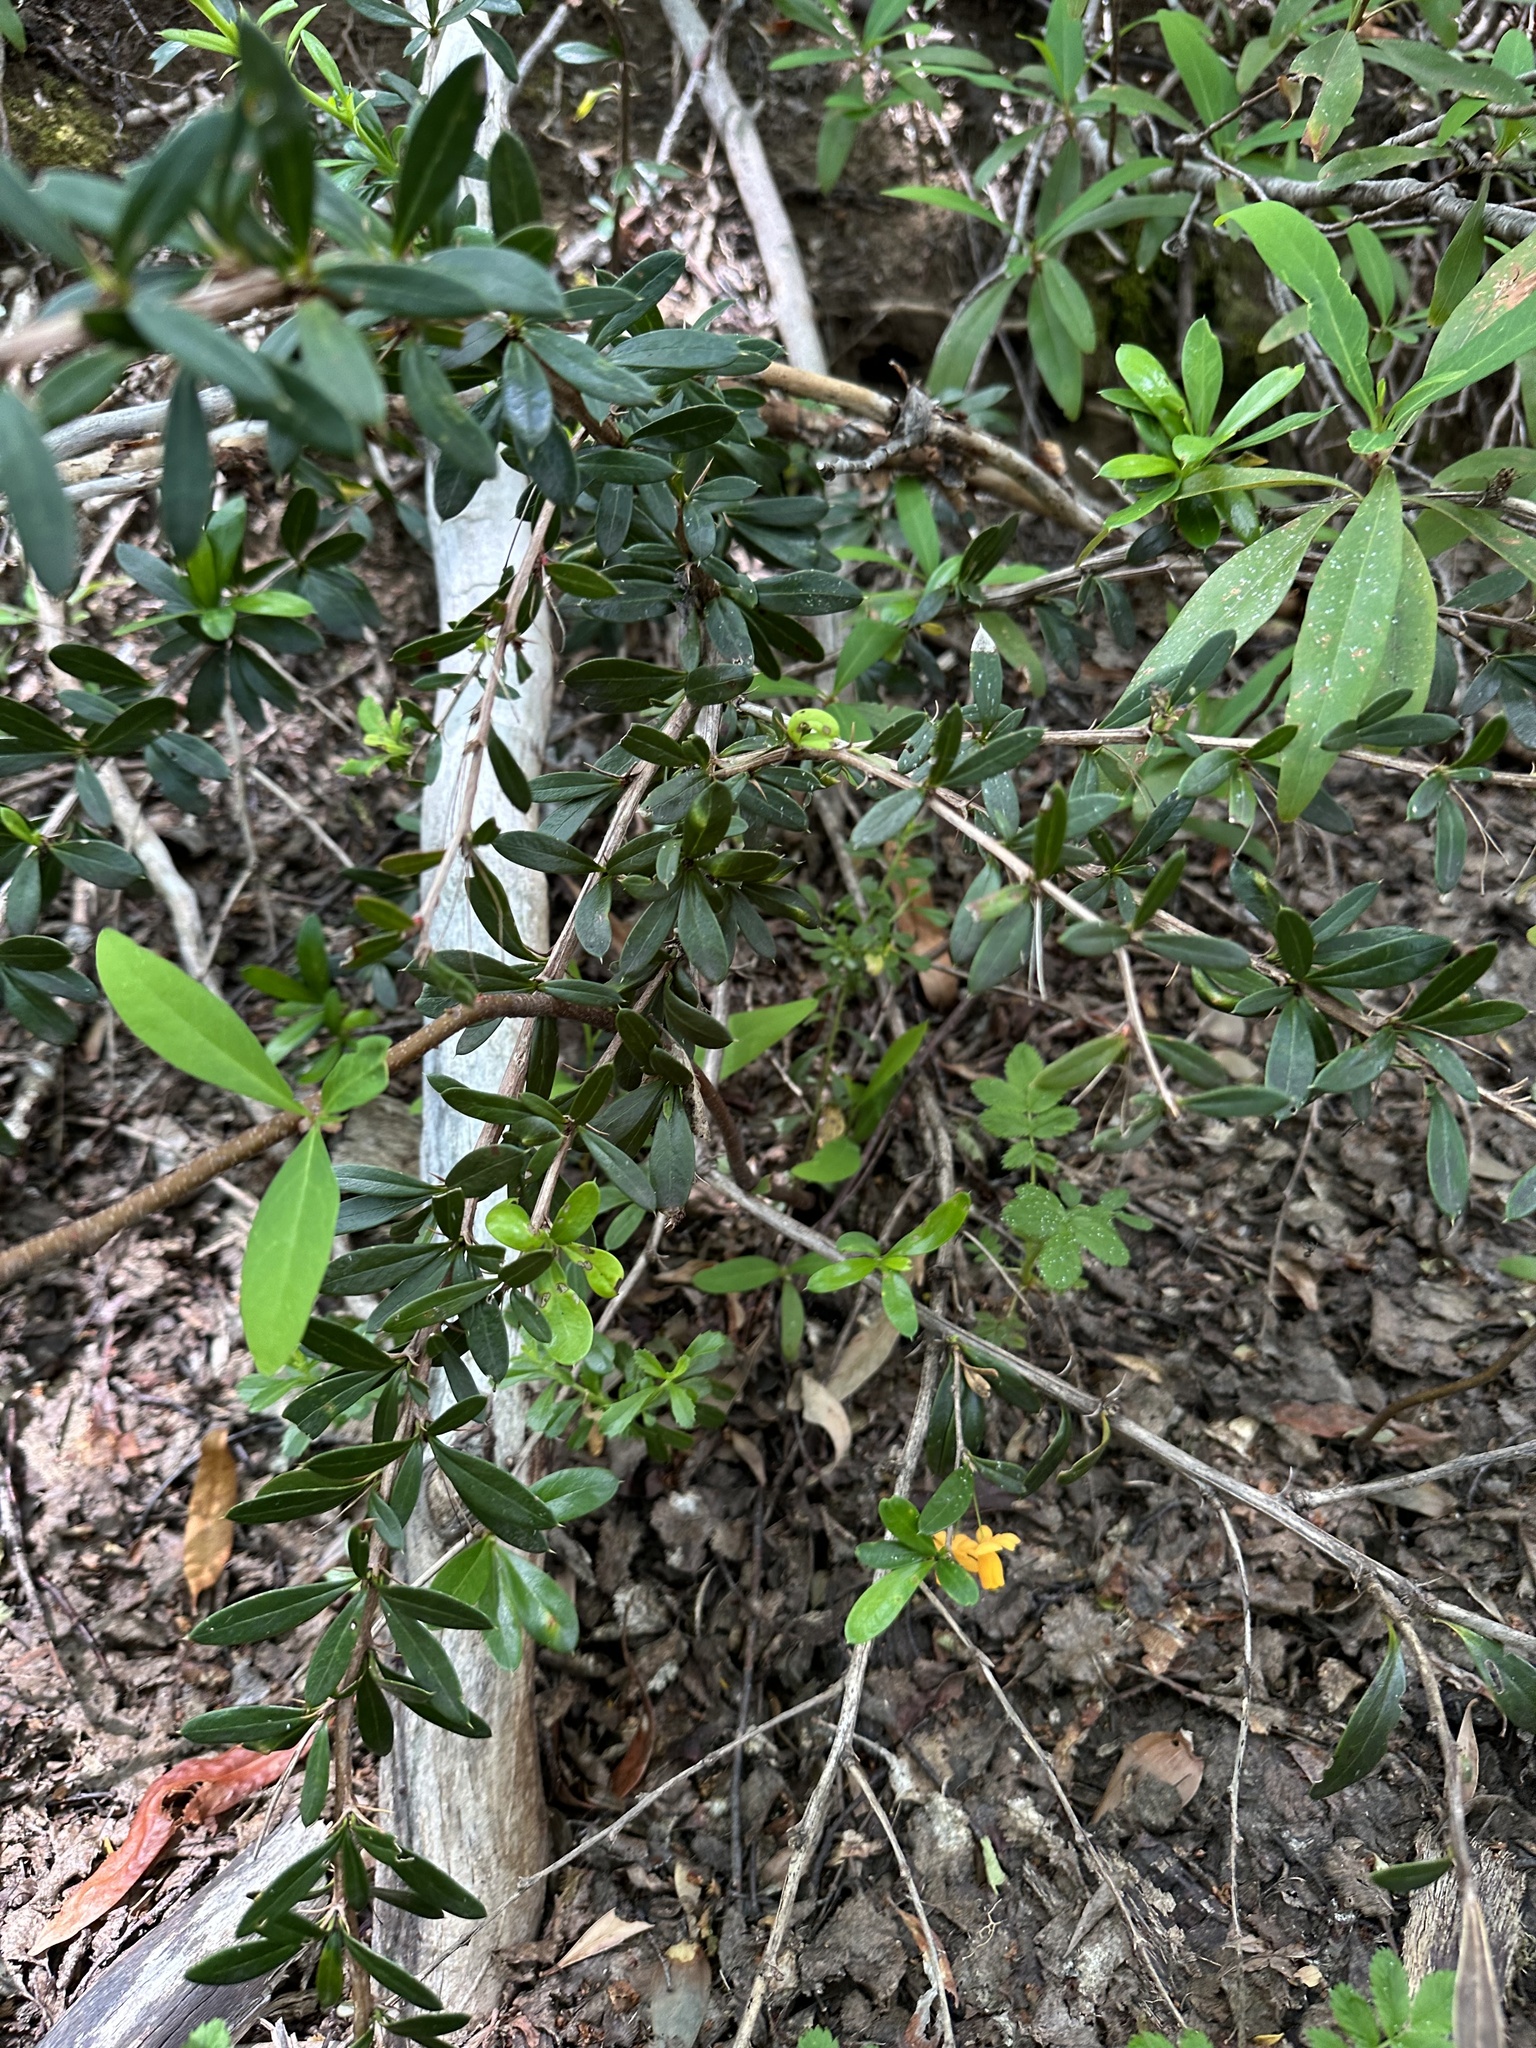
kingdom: Plantae
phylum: Tracheophyta
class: Magnoliopsida
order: Ranunculales
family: Berberidaceae
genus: Berberis
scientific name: Berberis trigona
